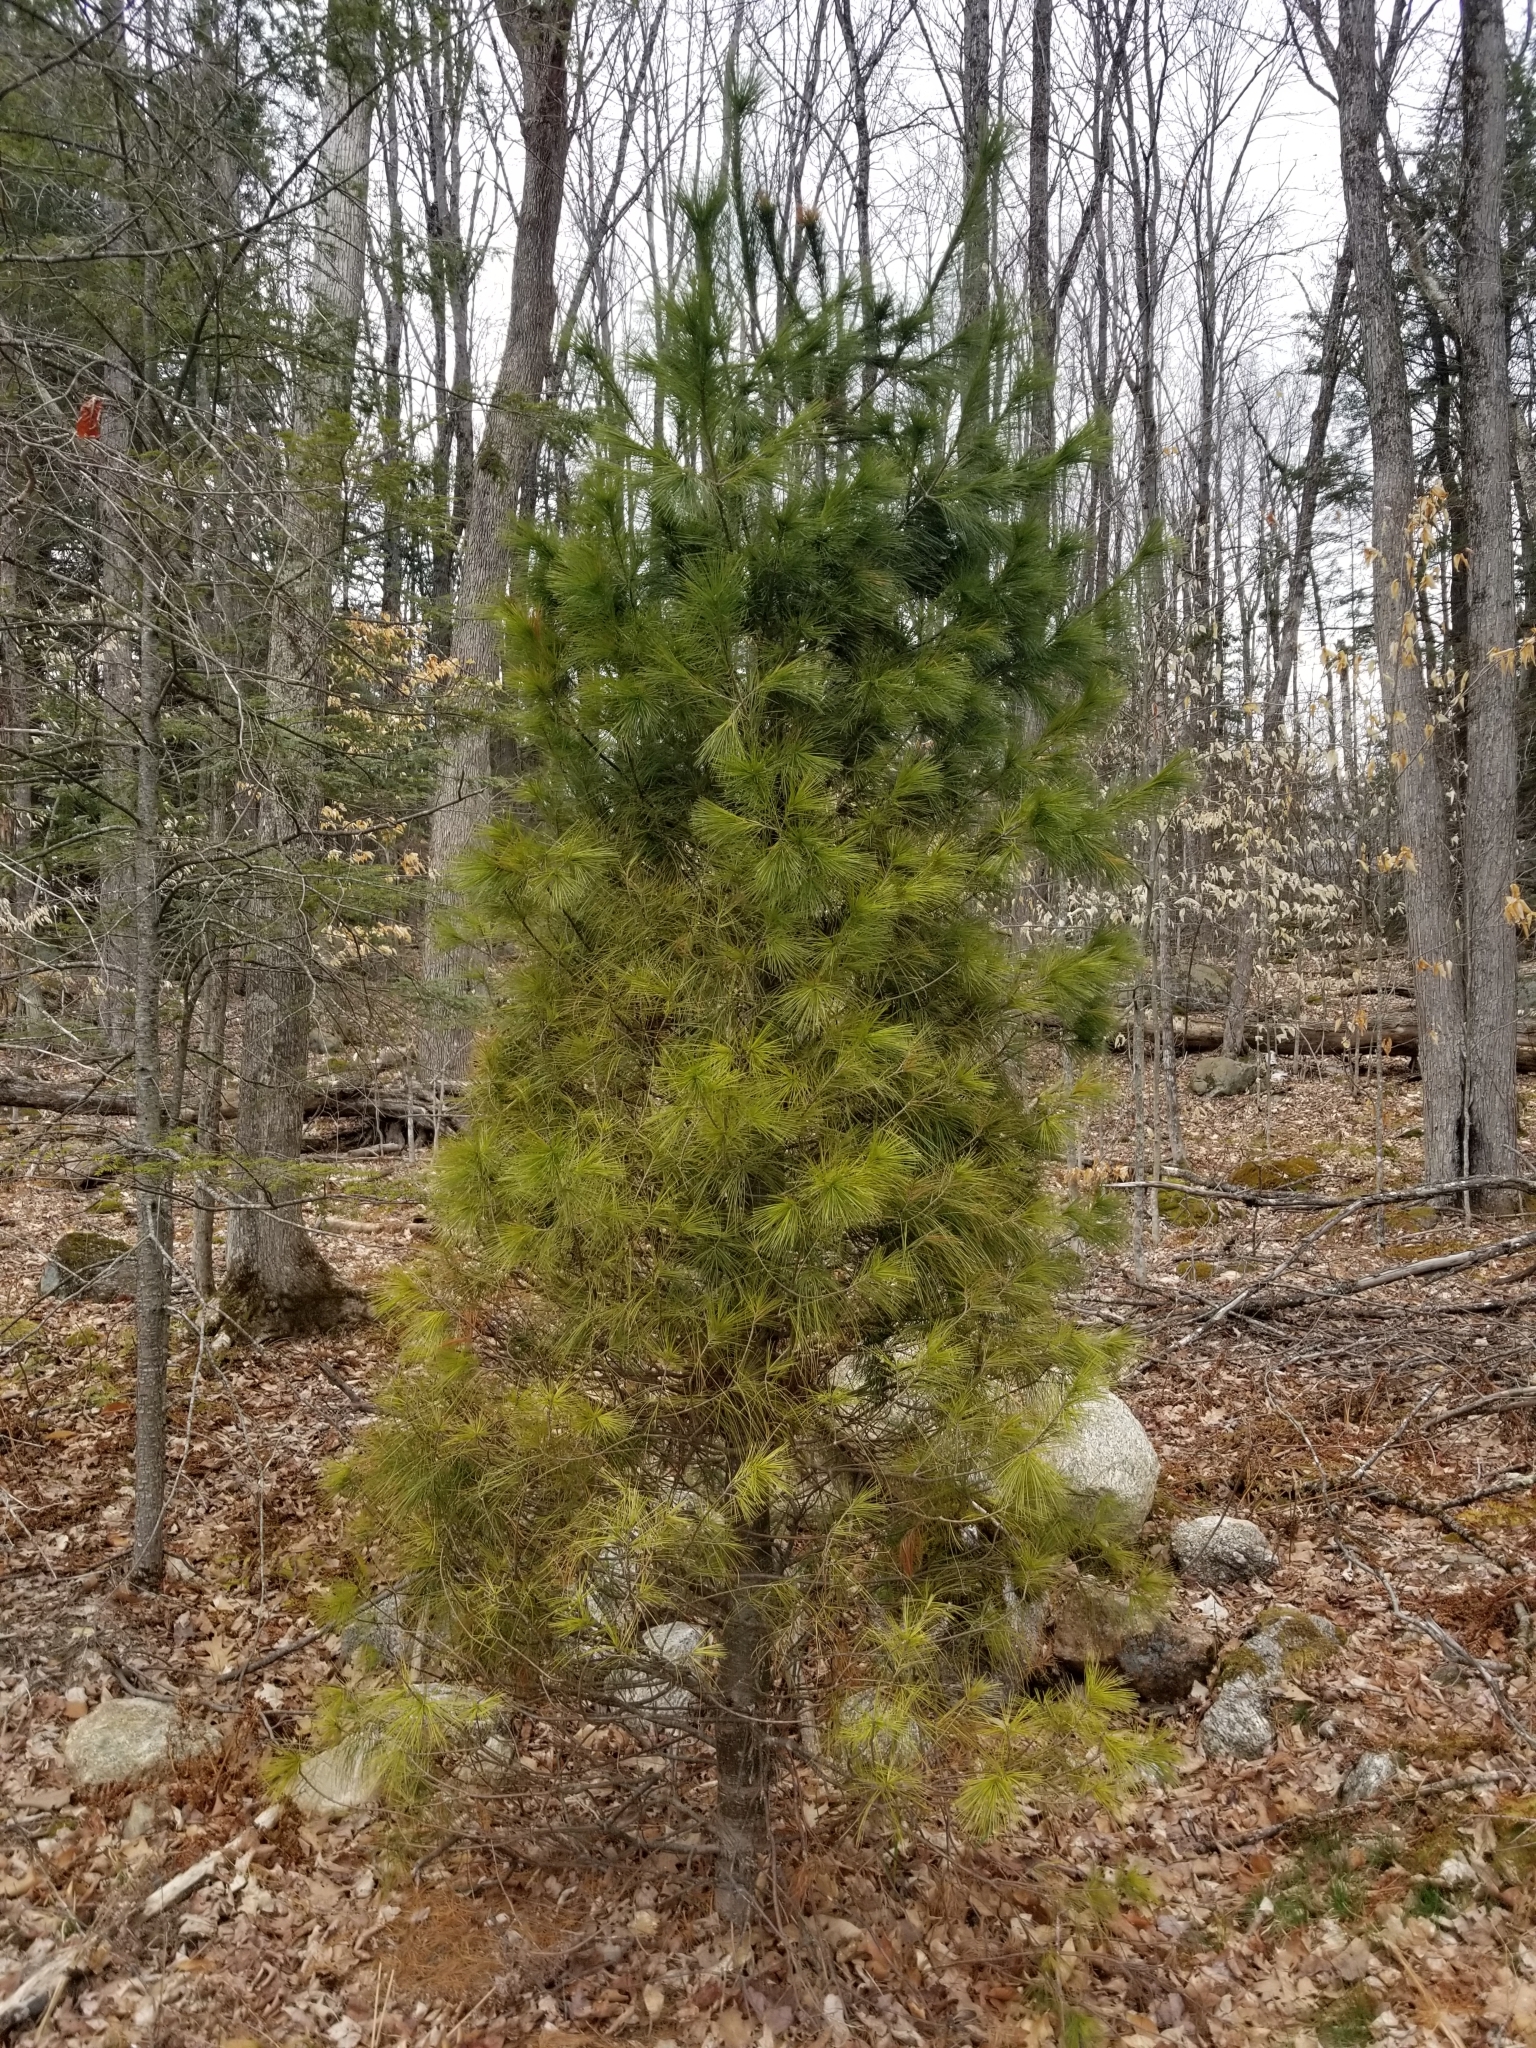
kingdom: Plantae
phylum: Tracheophyta
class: Pinopsida
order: Pinales
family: Pinaceae
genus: Pinus
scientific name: Pinus strobus
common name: Weymouth pine
